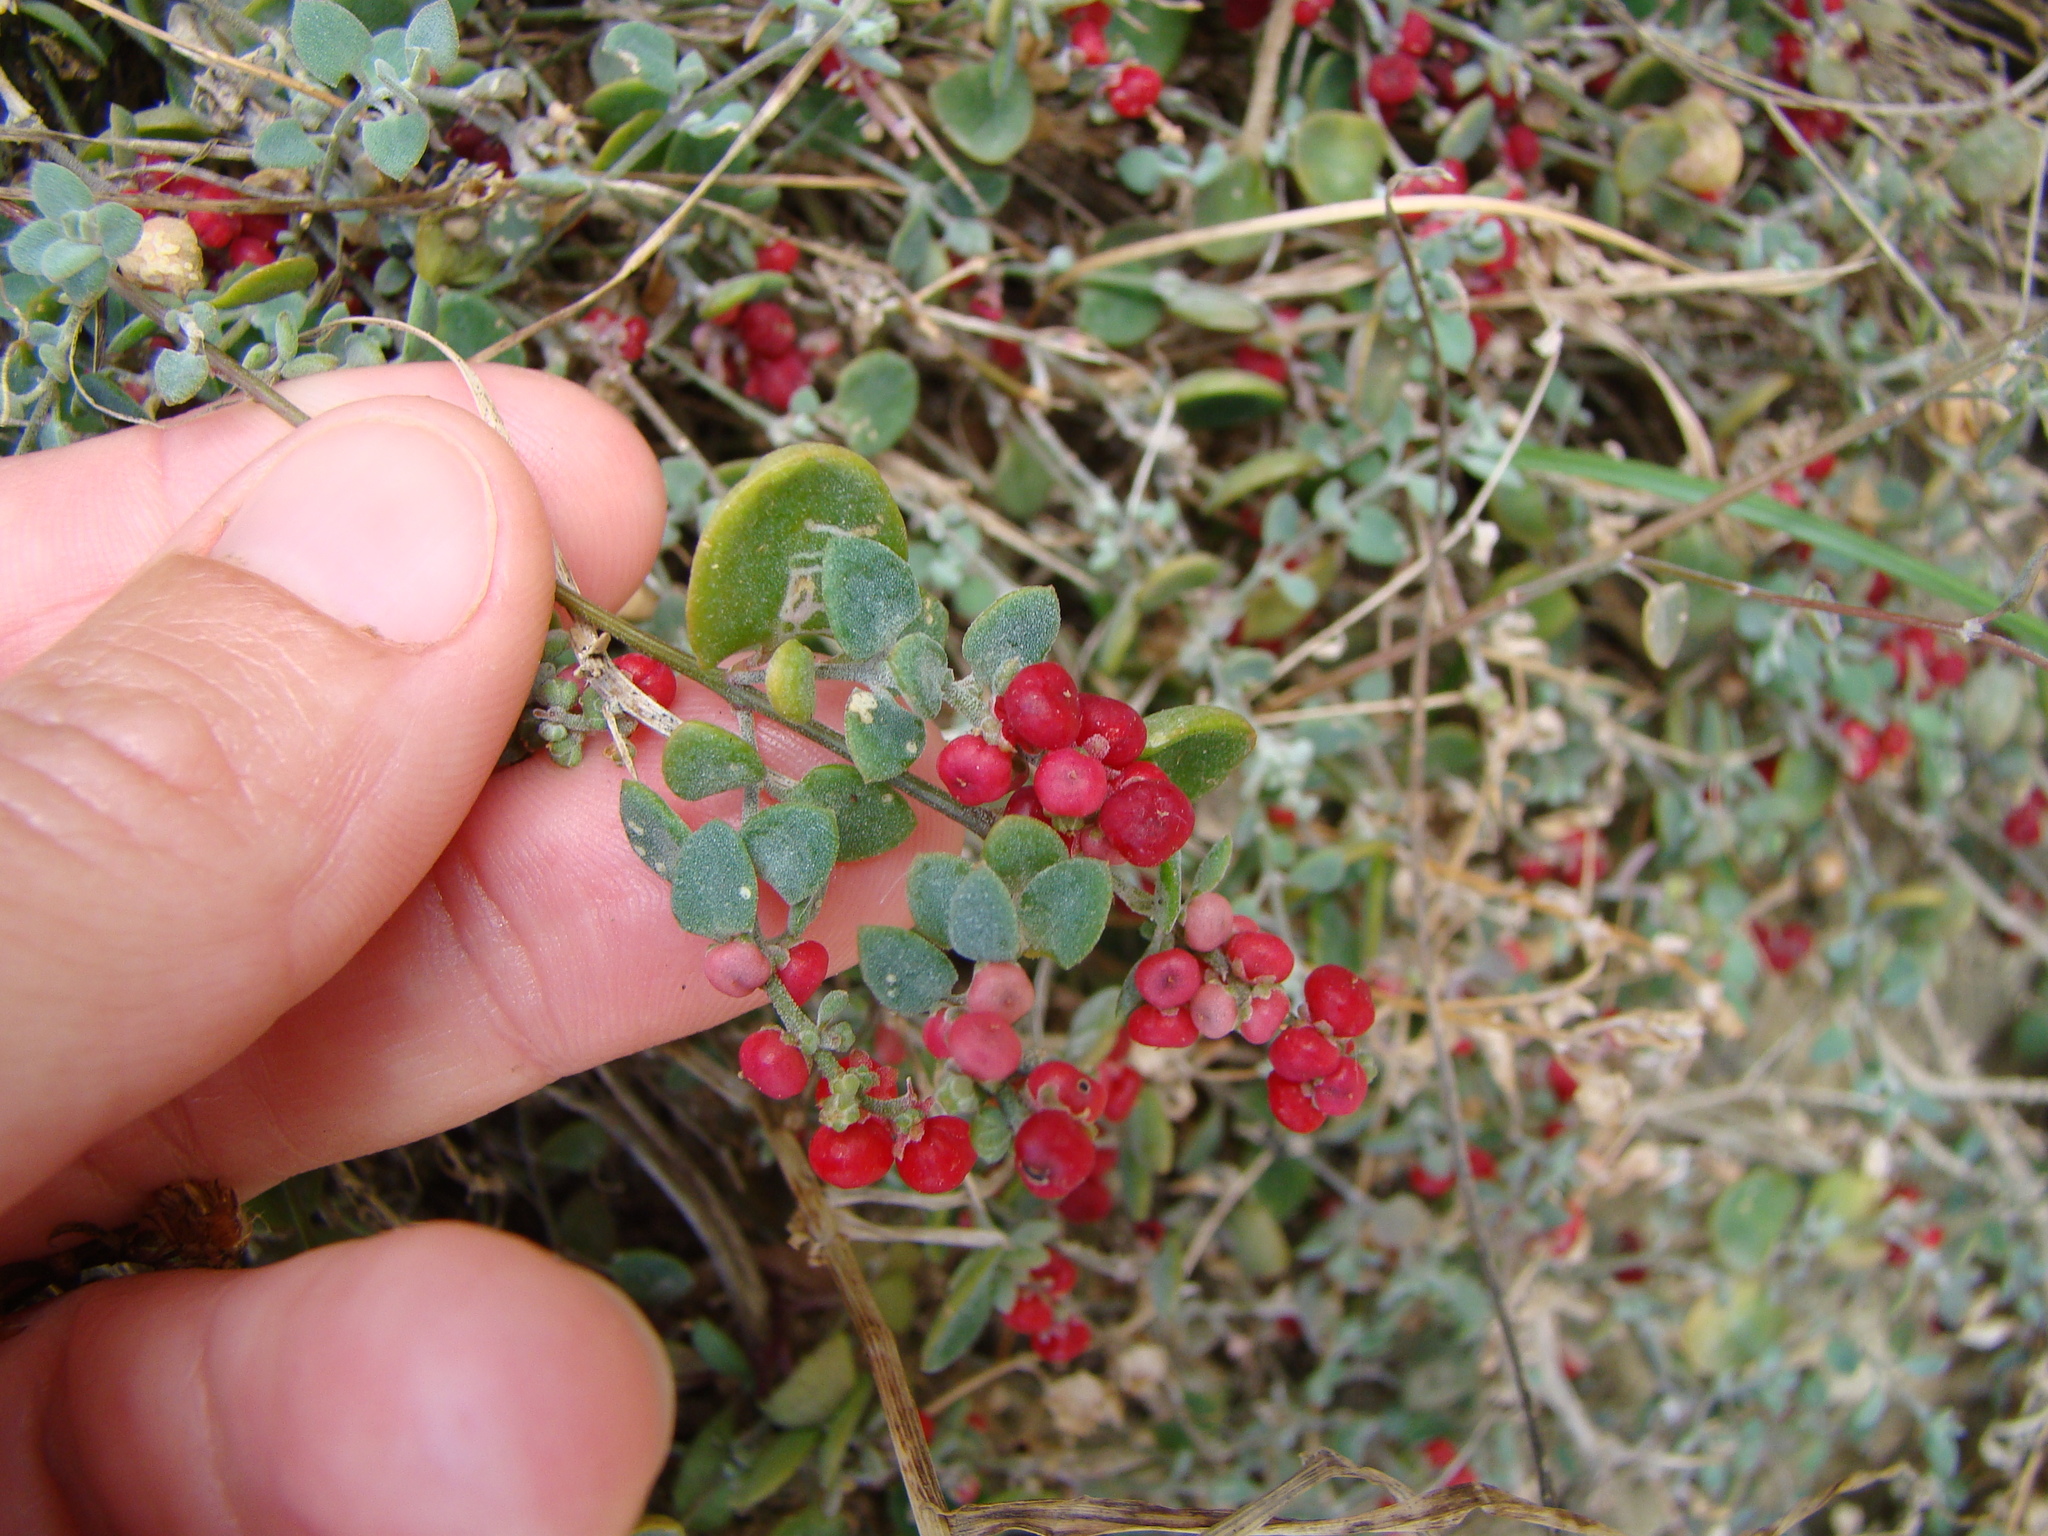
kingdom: Plantae
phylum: Tracheophyta
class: Magnoliopsida
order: Caryophyllales
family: Amaranthaceae
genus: Chenopodium
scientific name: Chenopodium triandrum
